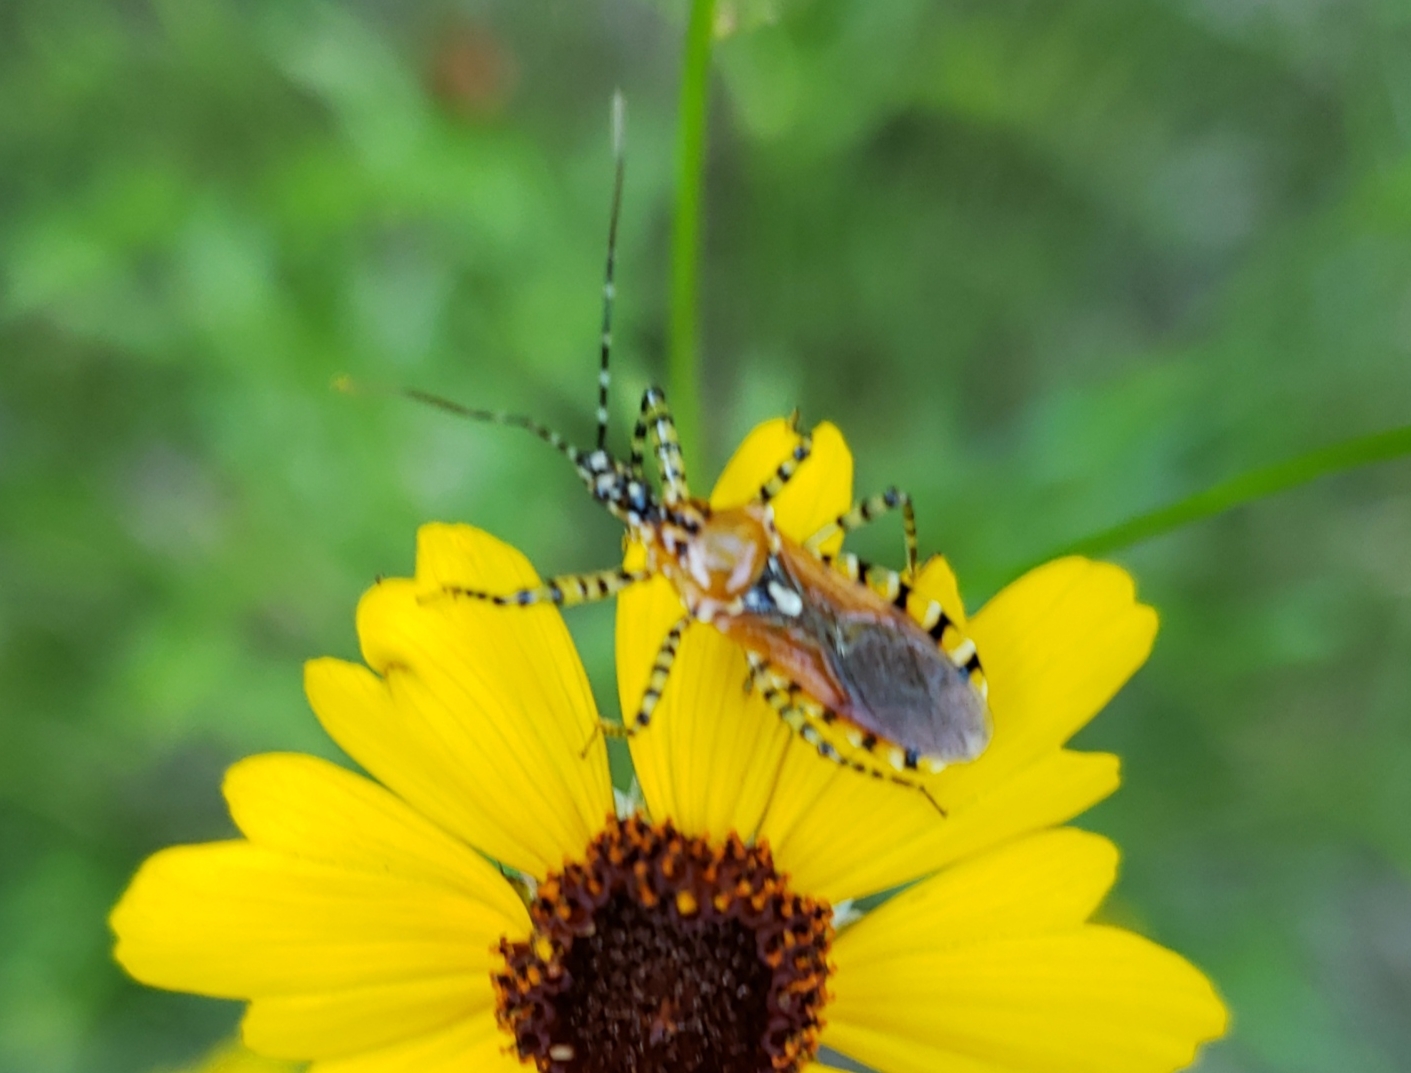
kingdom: Animalia
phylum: Arthropoda
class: Insecta
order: Hemiptera
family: Reduviidae
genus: Pselliopus
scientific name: Pselliopus cinctus
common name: Ringed assassin bug
